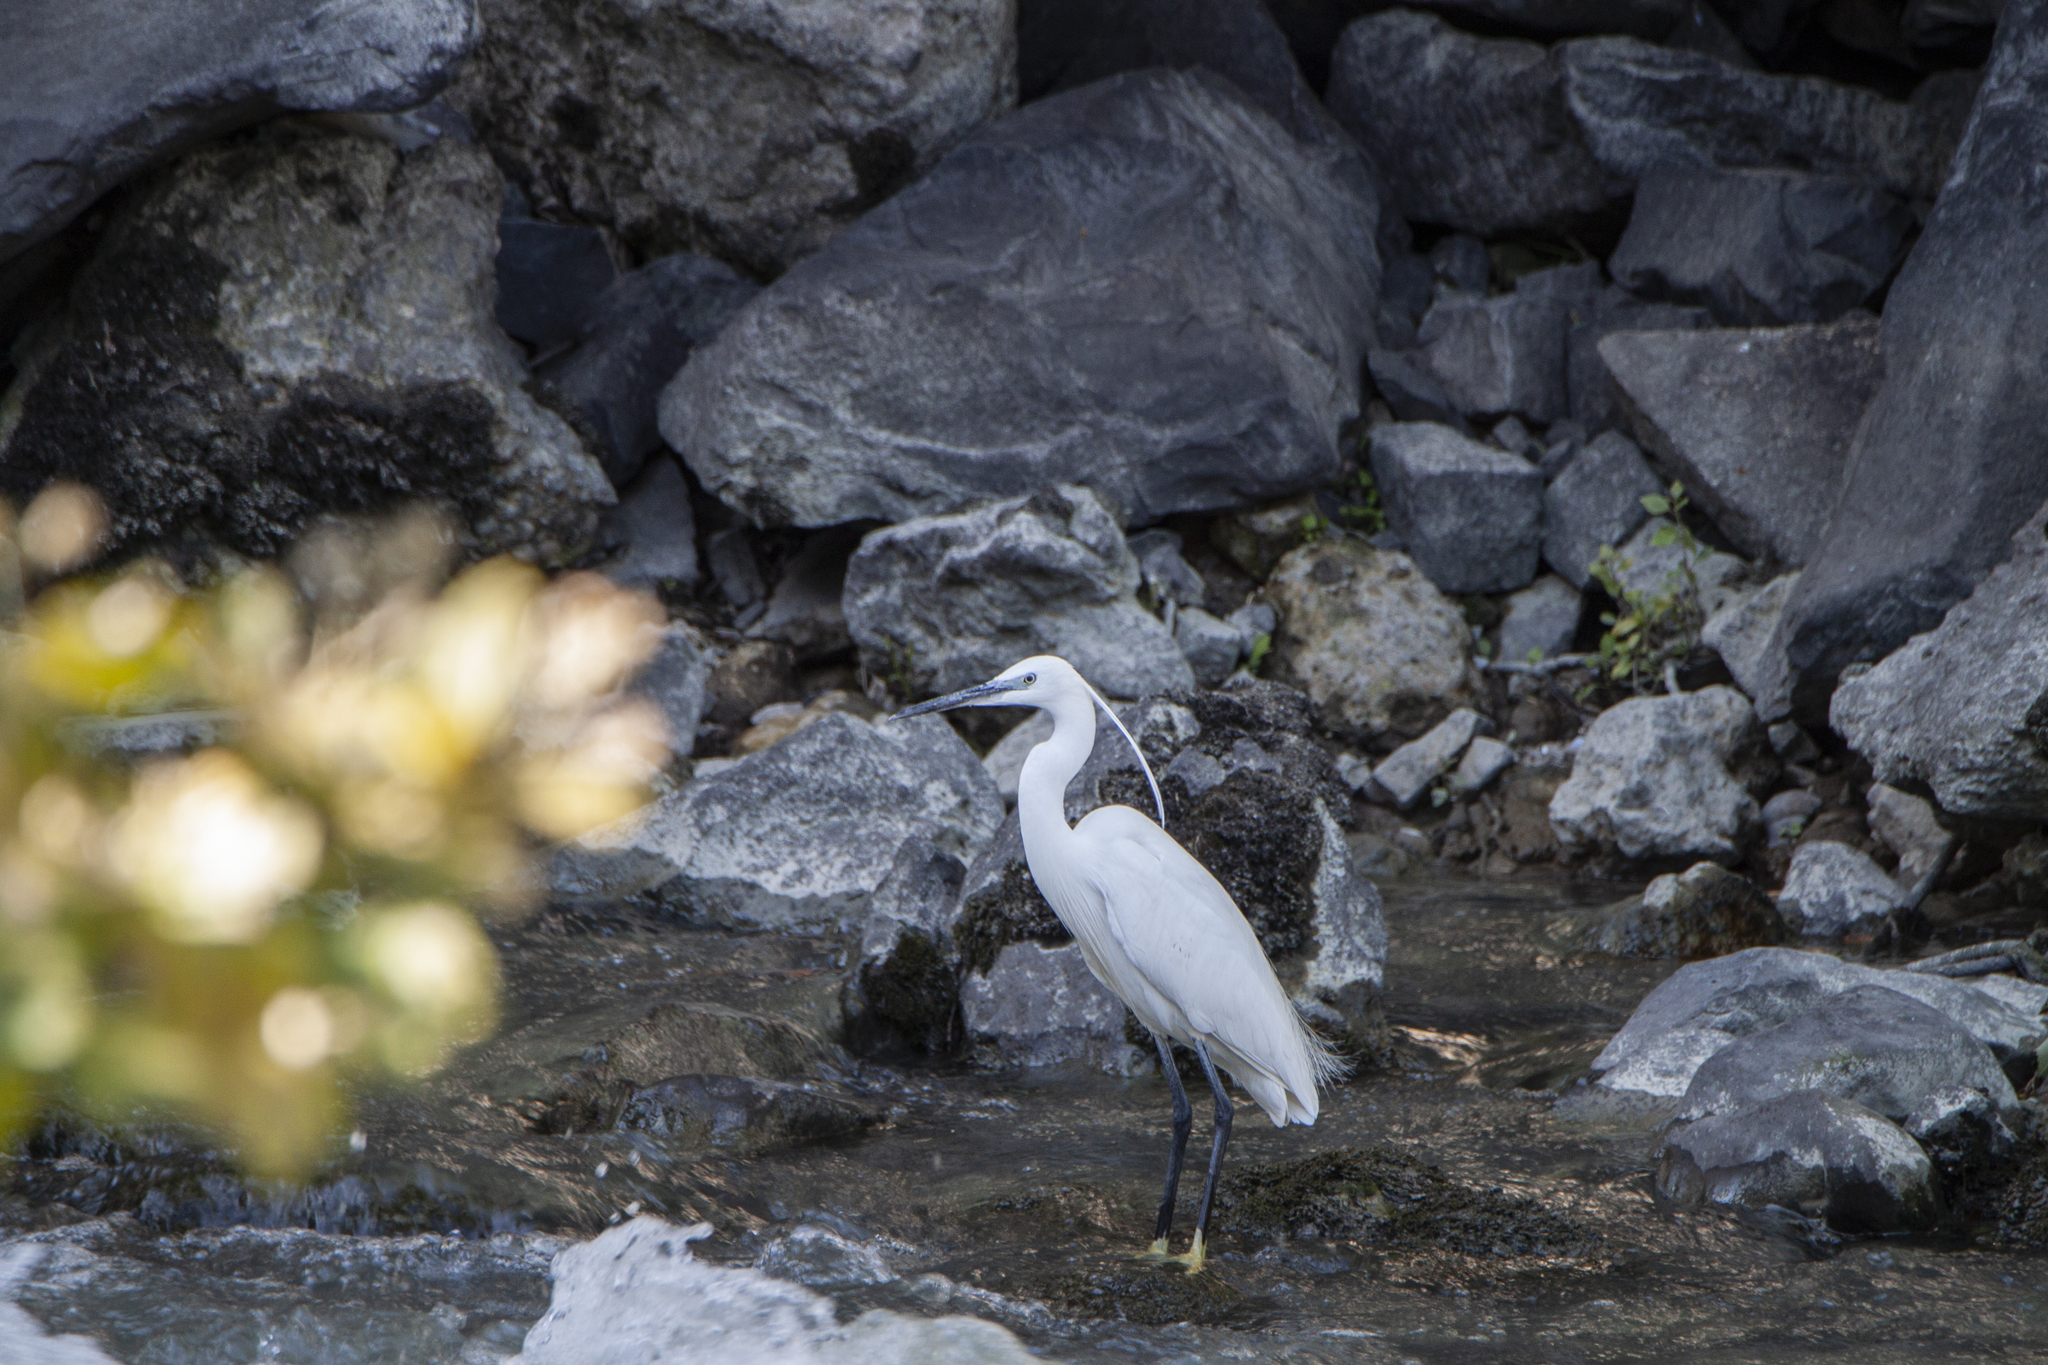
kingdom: Animalia
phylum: Chordata
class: Aves
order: Pelecaniformes
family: Ardeidae
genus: Egretta
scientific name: Egretta garzetta
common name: Little egret
